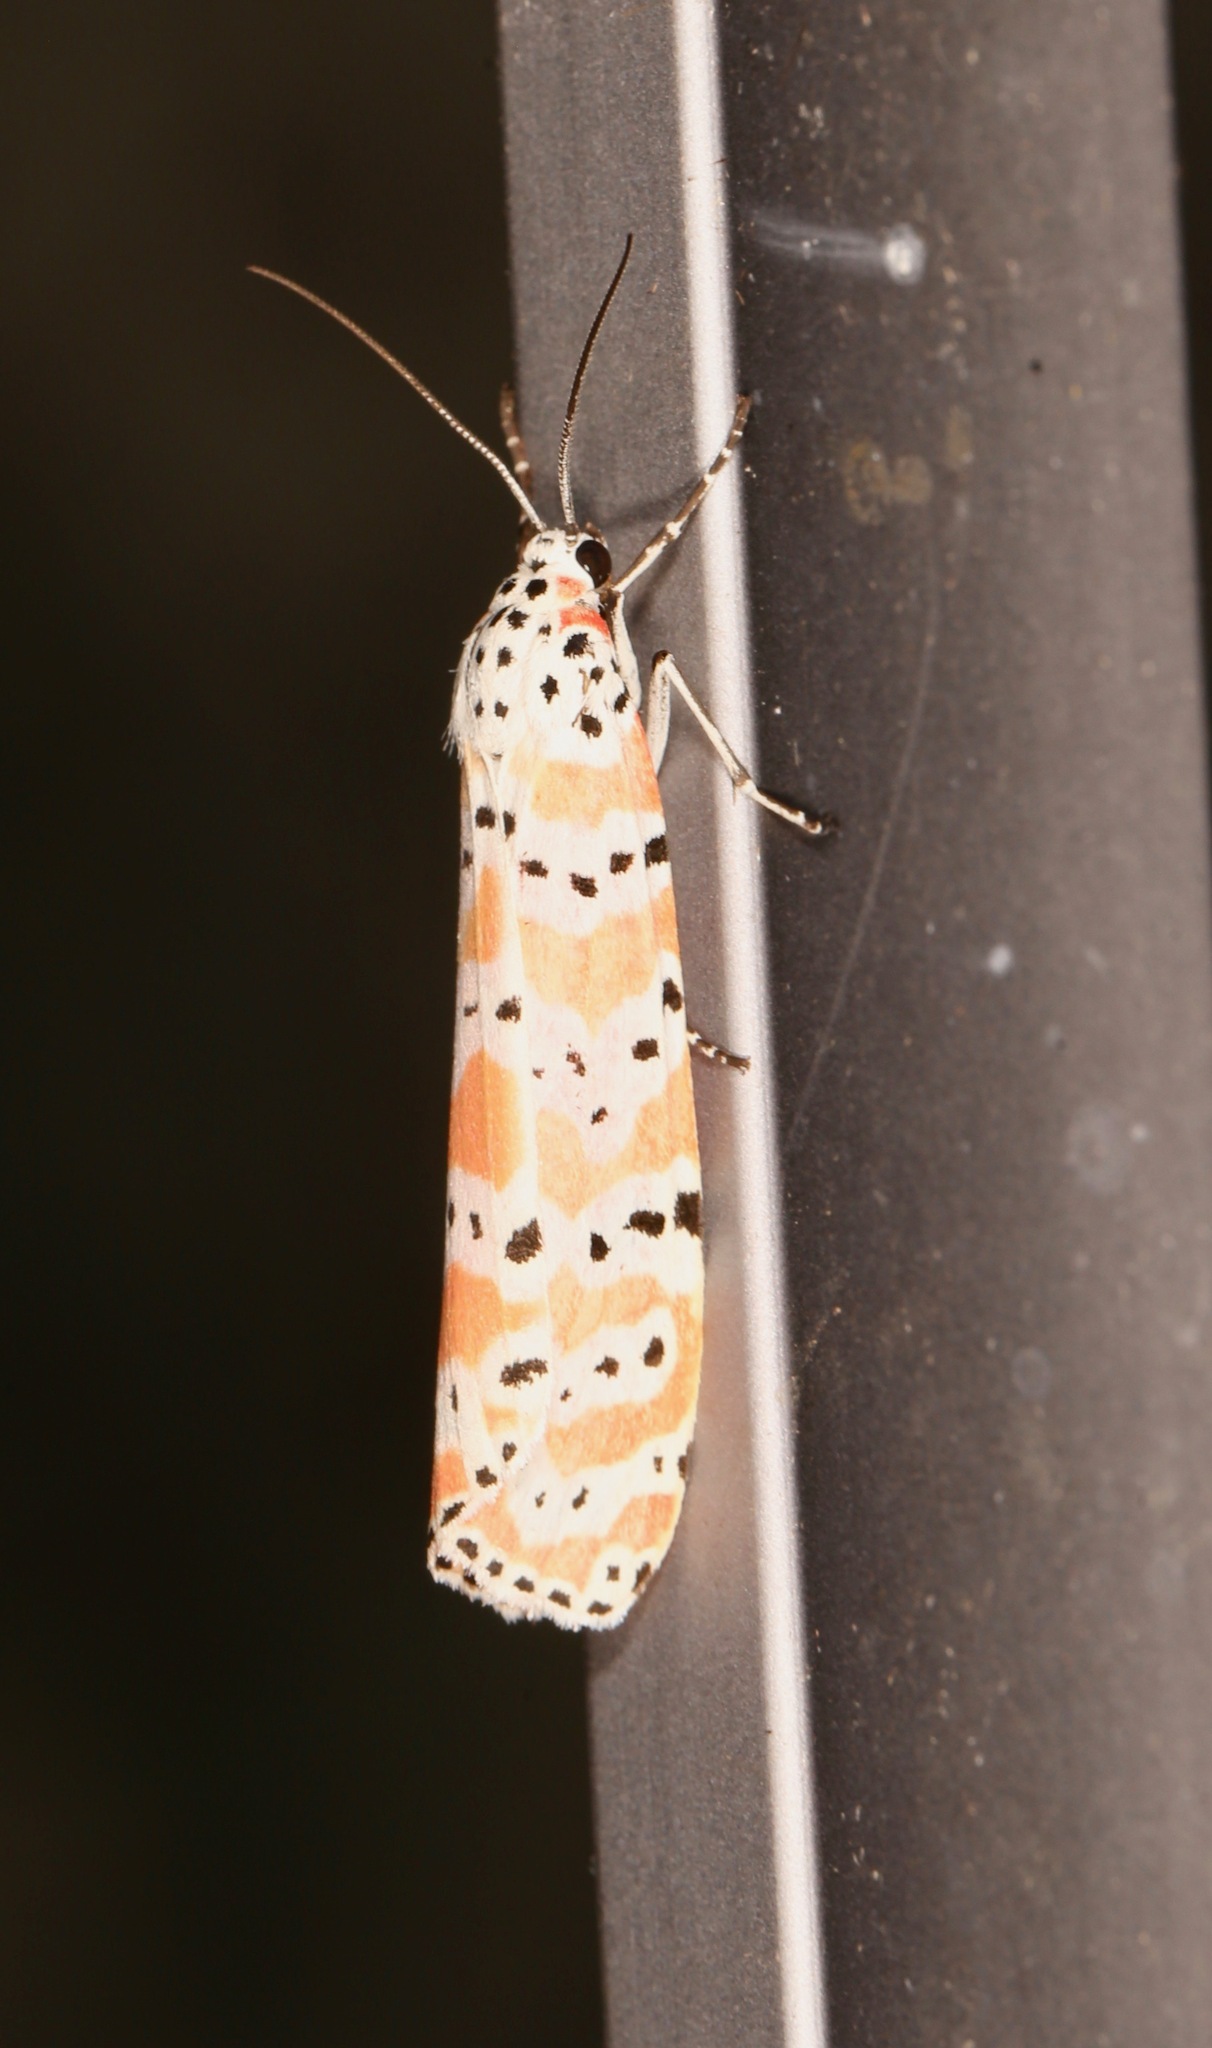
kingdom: Animalia
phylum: Arthropoda
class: Insecta
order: Lepidoptera
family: Erebidae
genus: Utetheisa
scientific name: Utetheisa ornatrix
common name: Beautiful utetheisa
